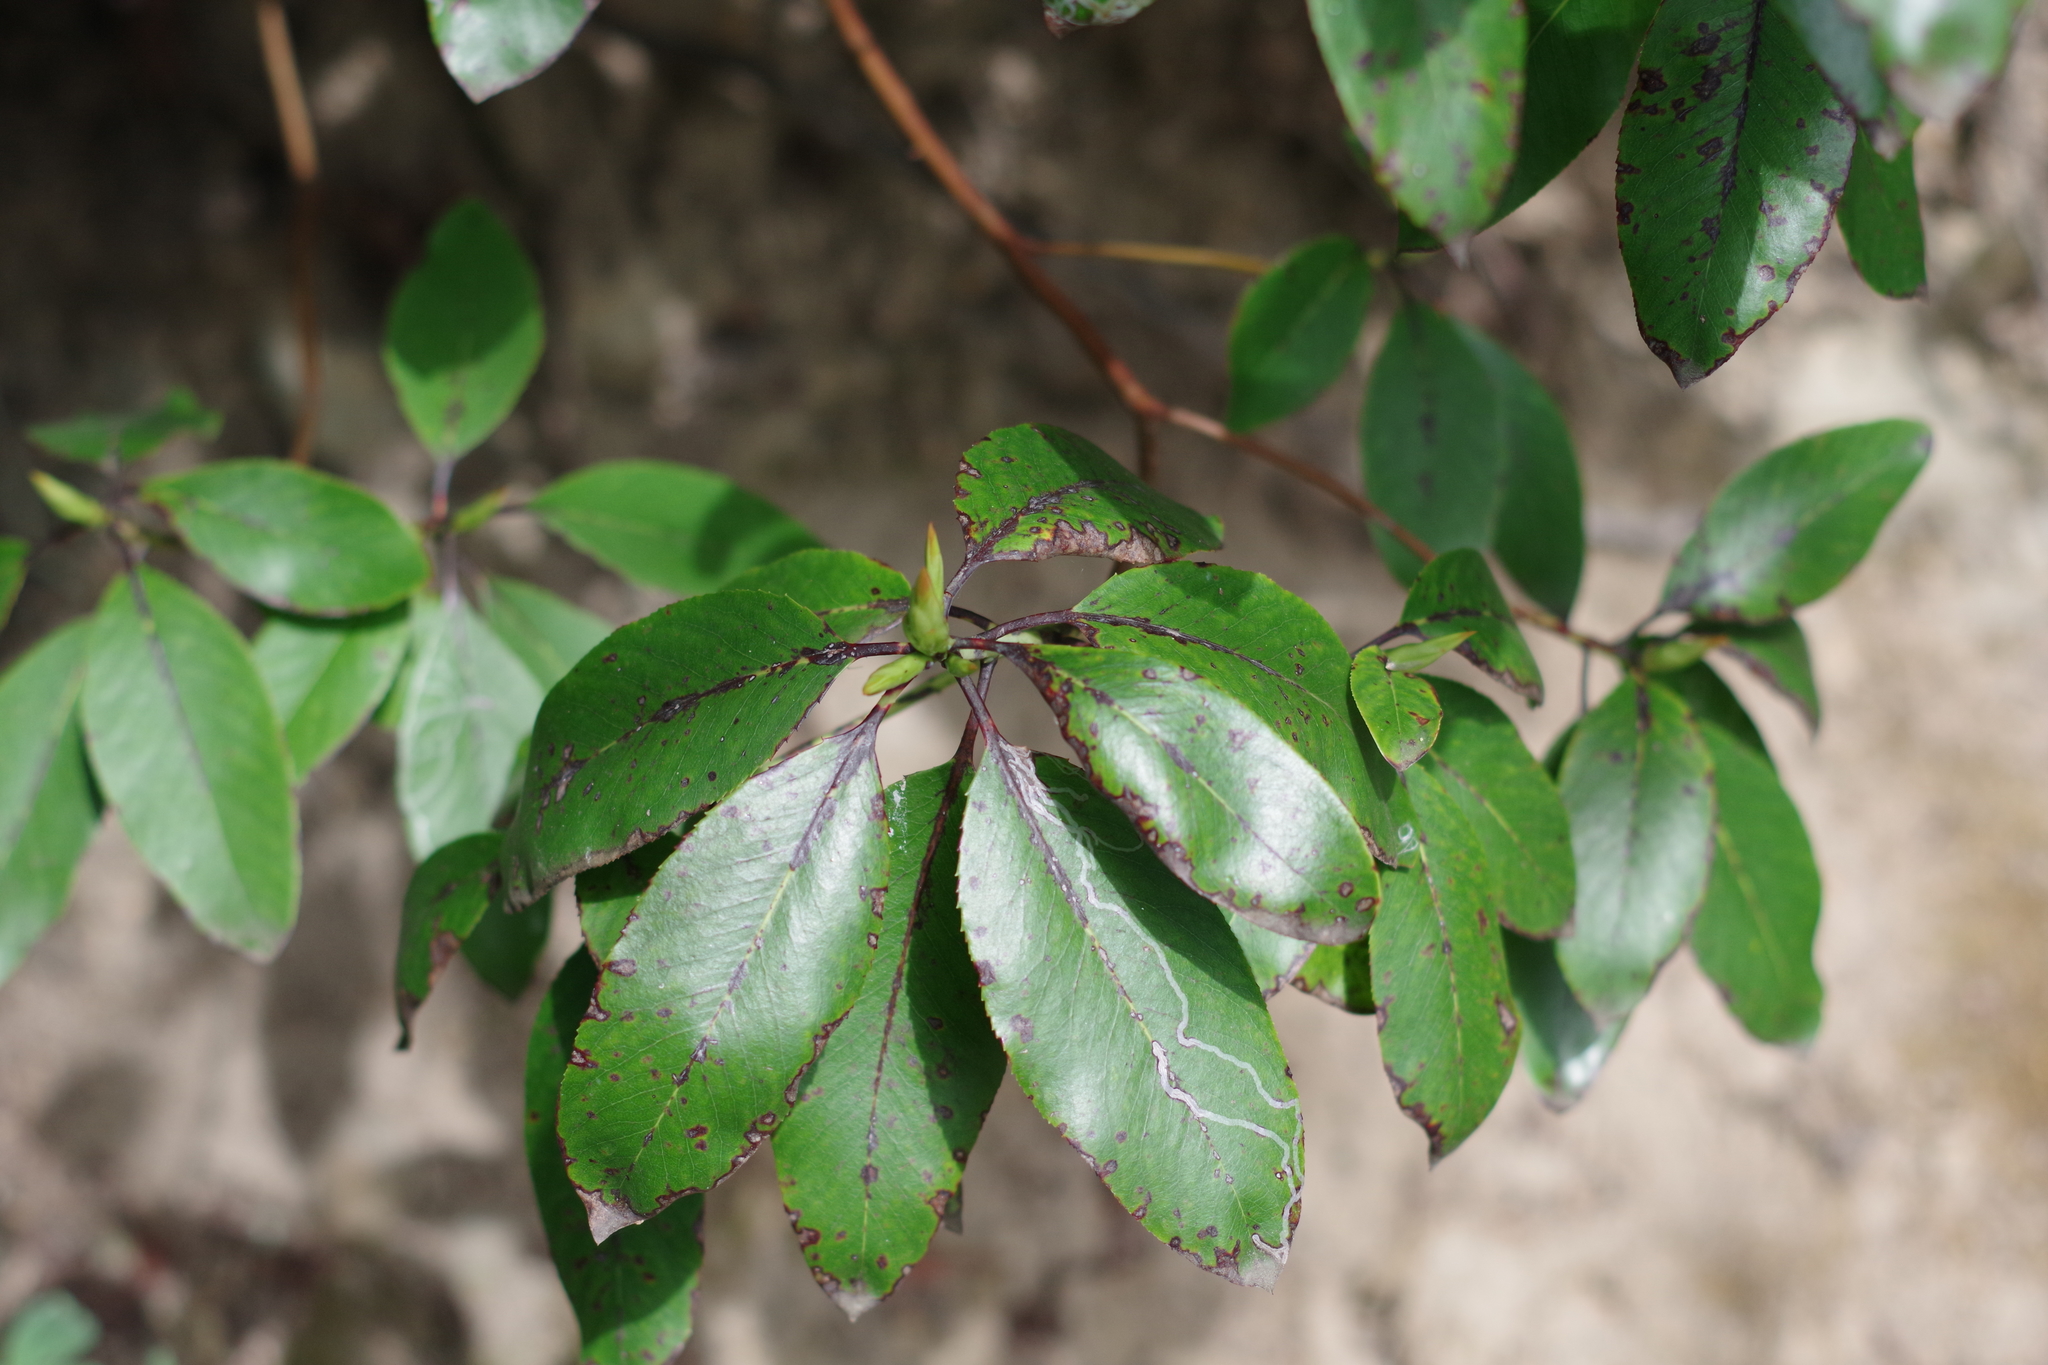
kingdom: Plantae
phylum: Tracheophyta
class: Magnoliopsida
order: Ericales
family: Ericaceae
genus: Arbutus
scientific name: Arbutus menziesii
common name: Pacific madrone
